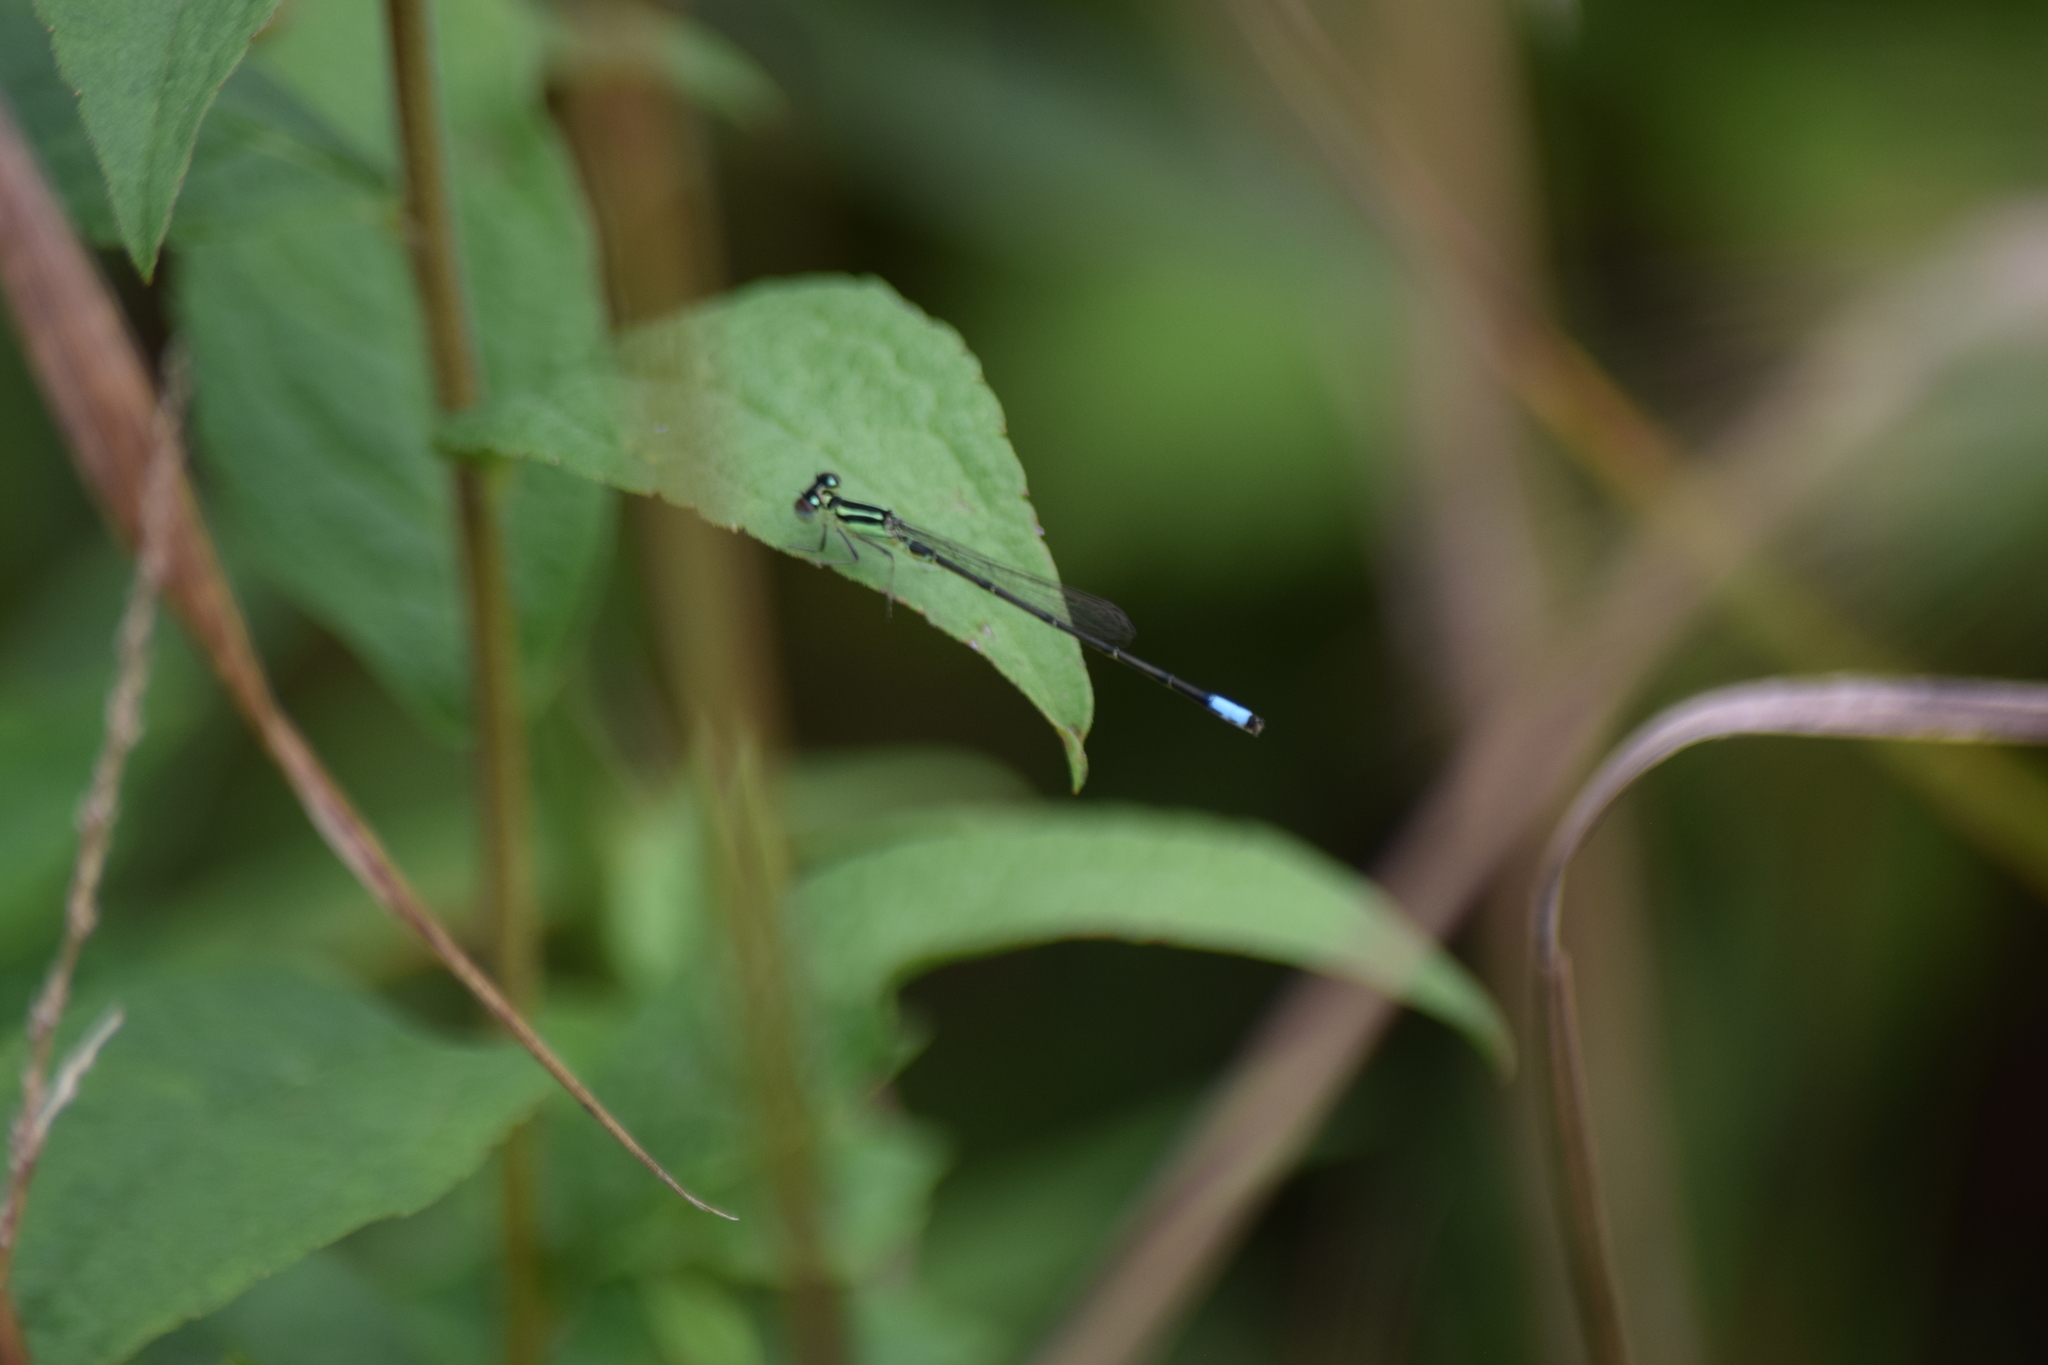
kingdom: Animalia
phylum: Arthropoda
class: Insecta
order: Odonata
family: Coenagrionidae
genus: Ischnura
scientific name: Ischnura verticalis
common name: Eastern forktail
